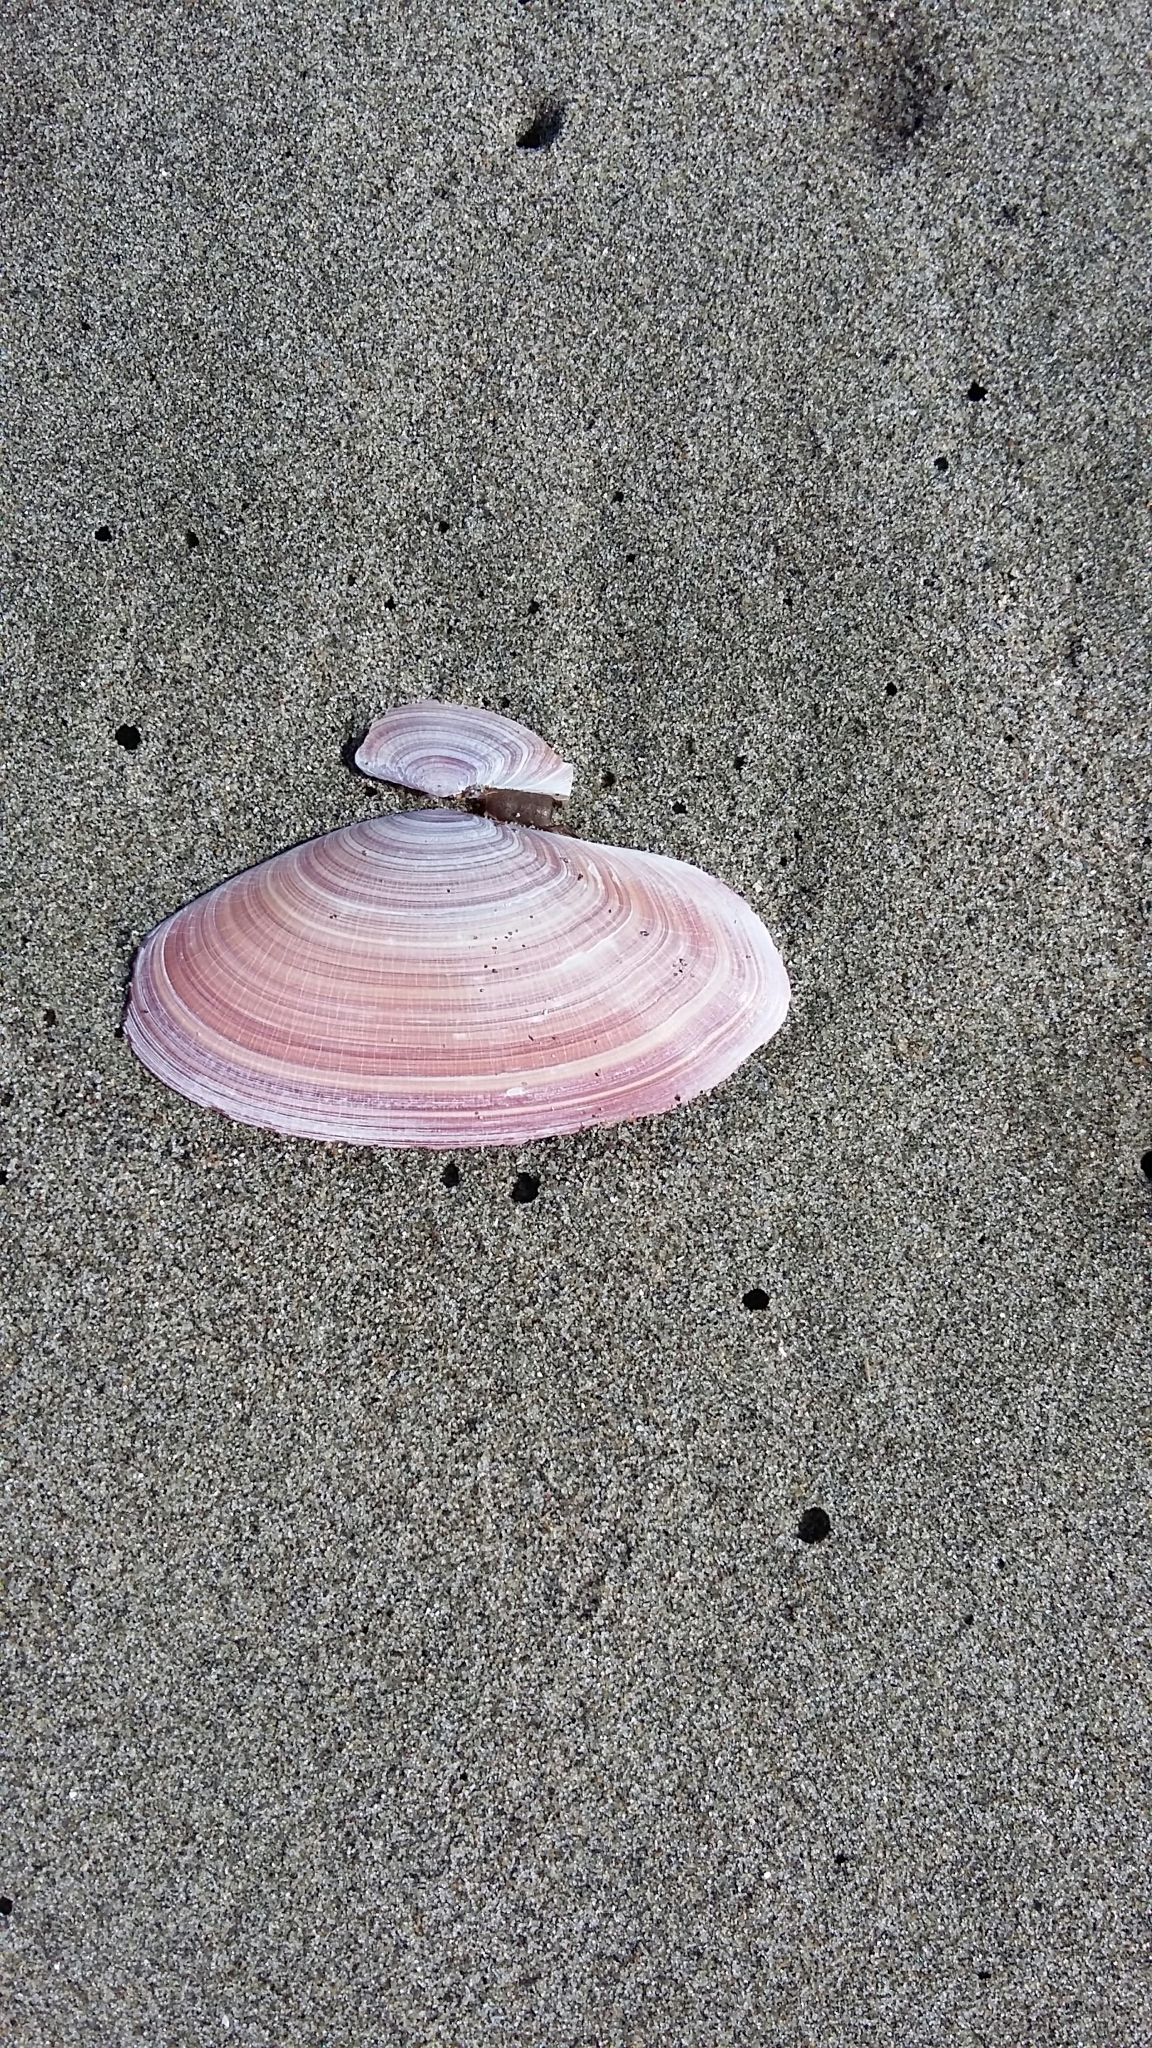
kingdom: Animalia
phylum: Mollusca
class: Bivalvia
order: Cardiida
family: Psammobiidae
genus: Gari
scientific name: Gari lineolata
